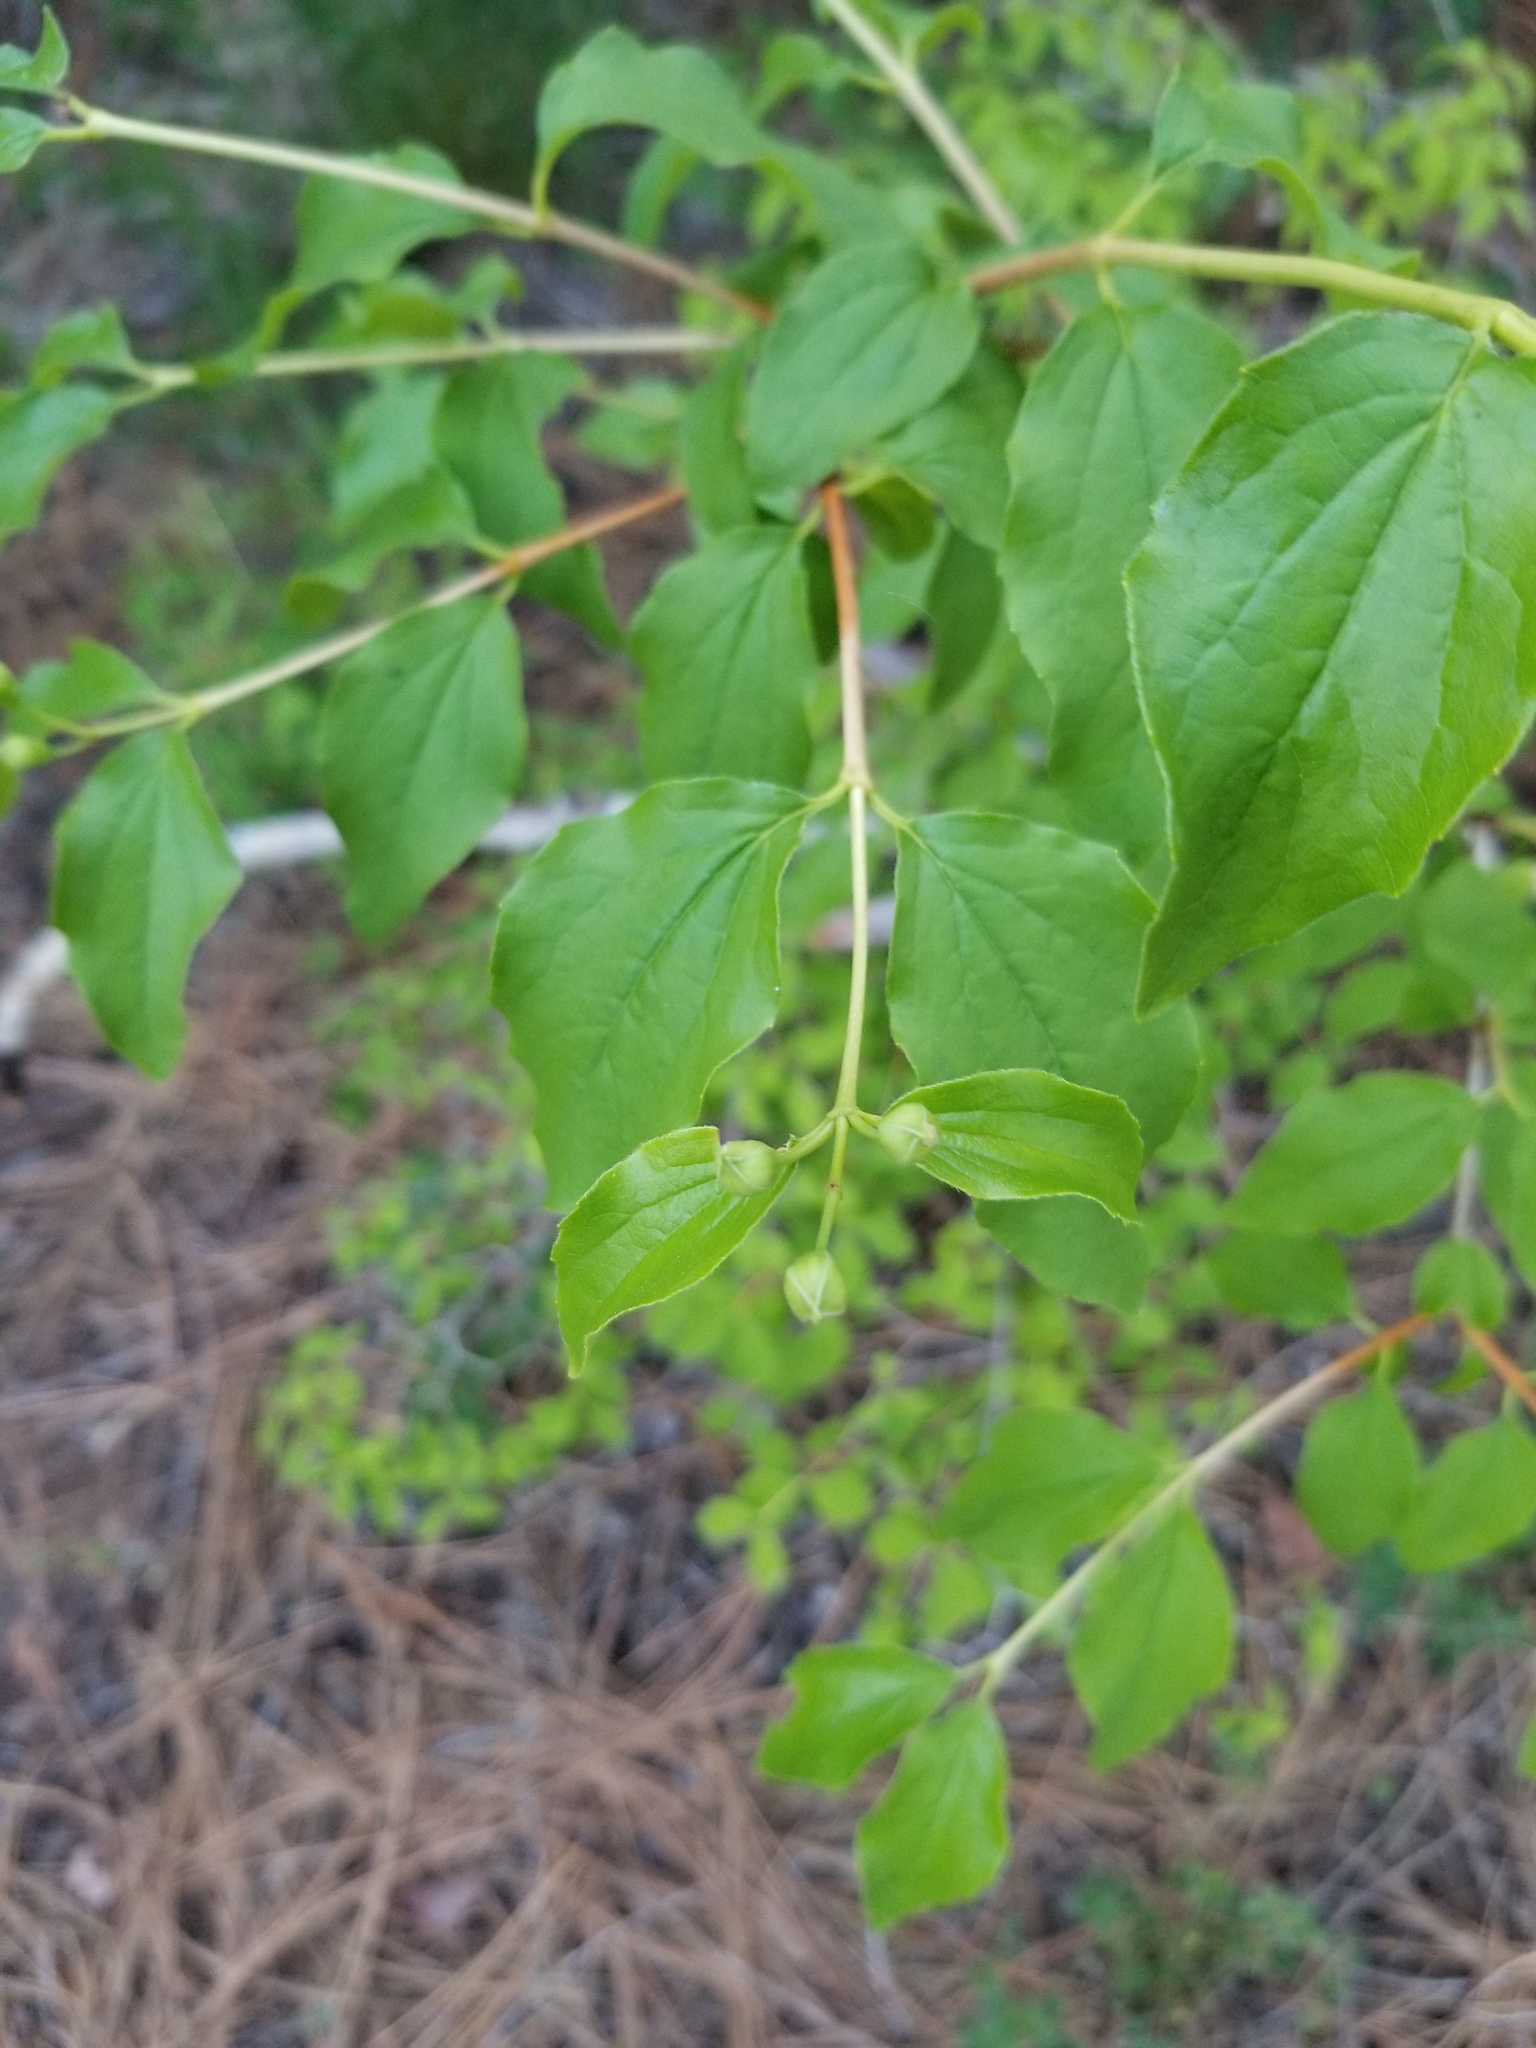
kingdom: Plantae
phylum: Tracheophyta
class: Magnoliopsida
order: Cornales
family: Hydrangeaceae
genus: Philadelphus
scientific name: Philadelphus lewisii
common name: Lewis's mock orange
